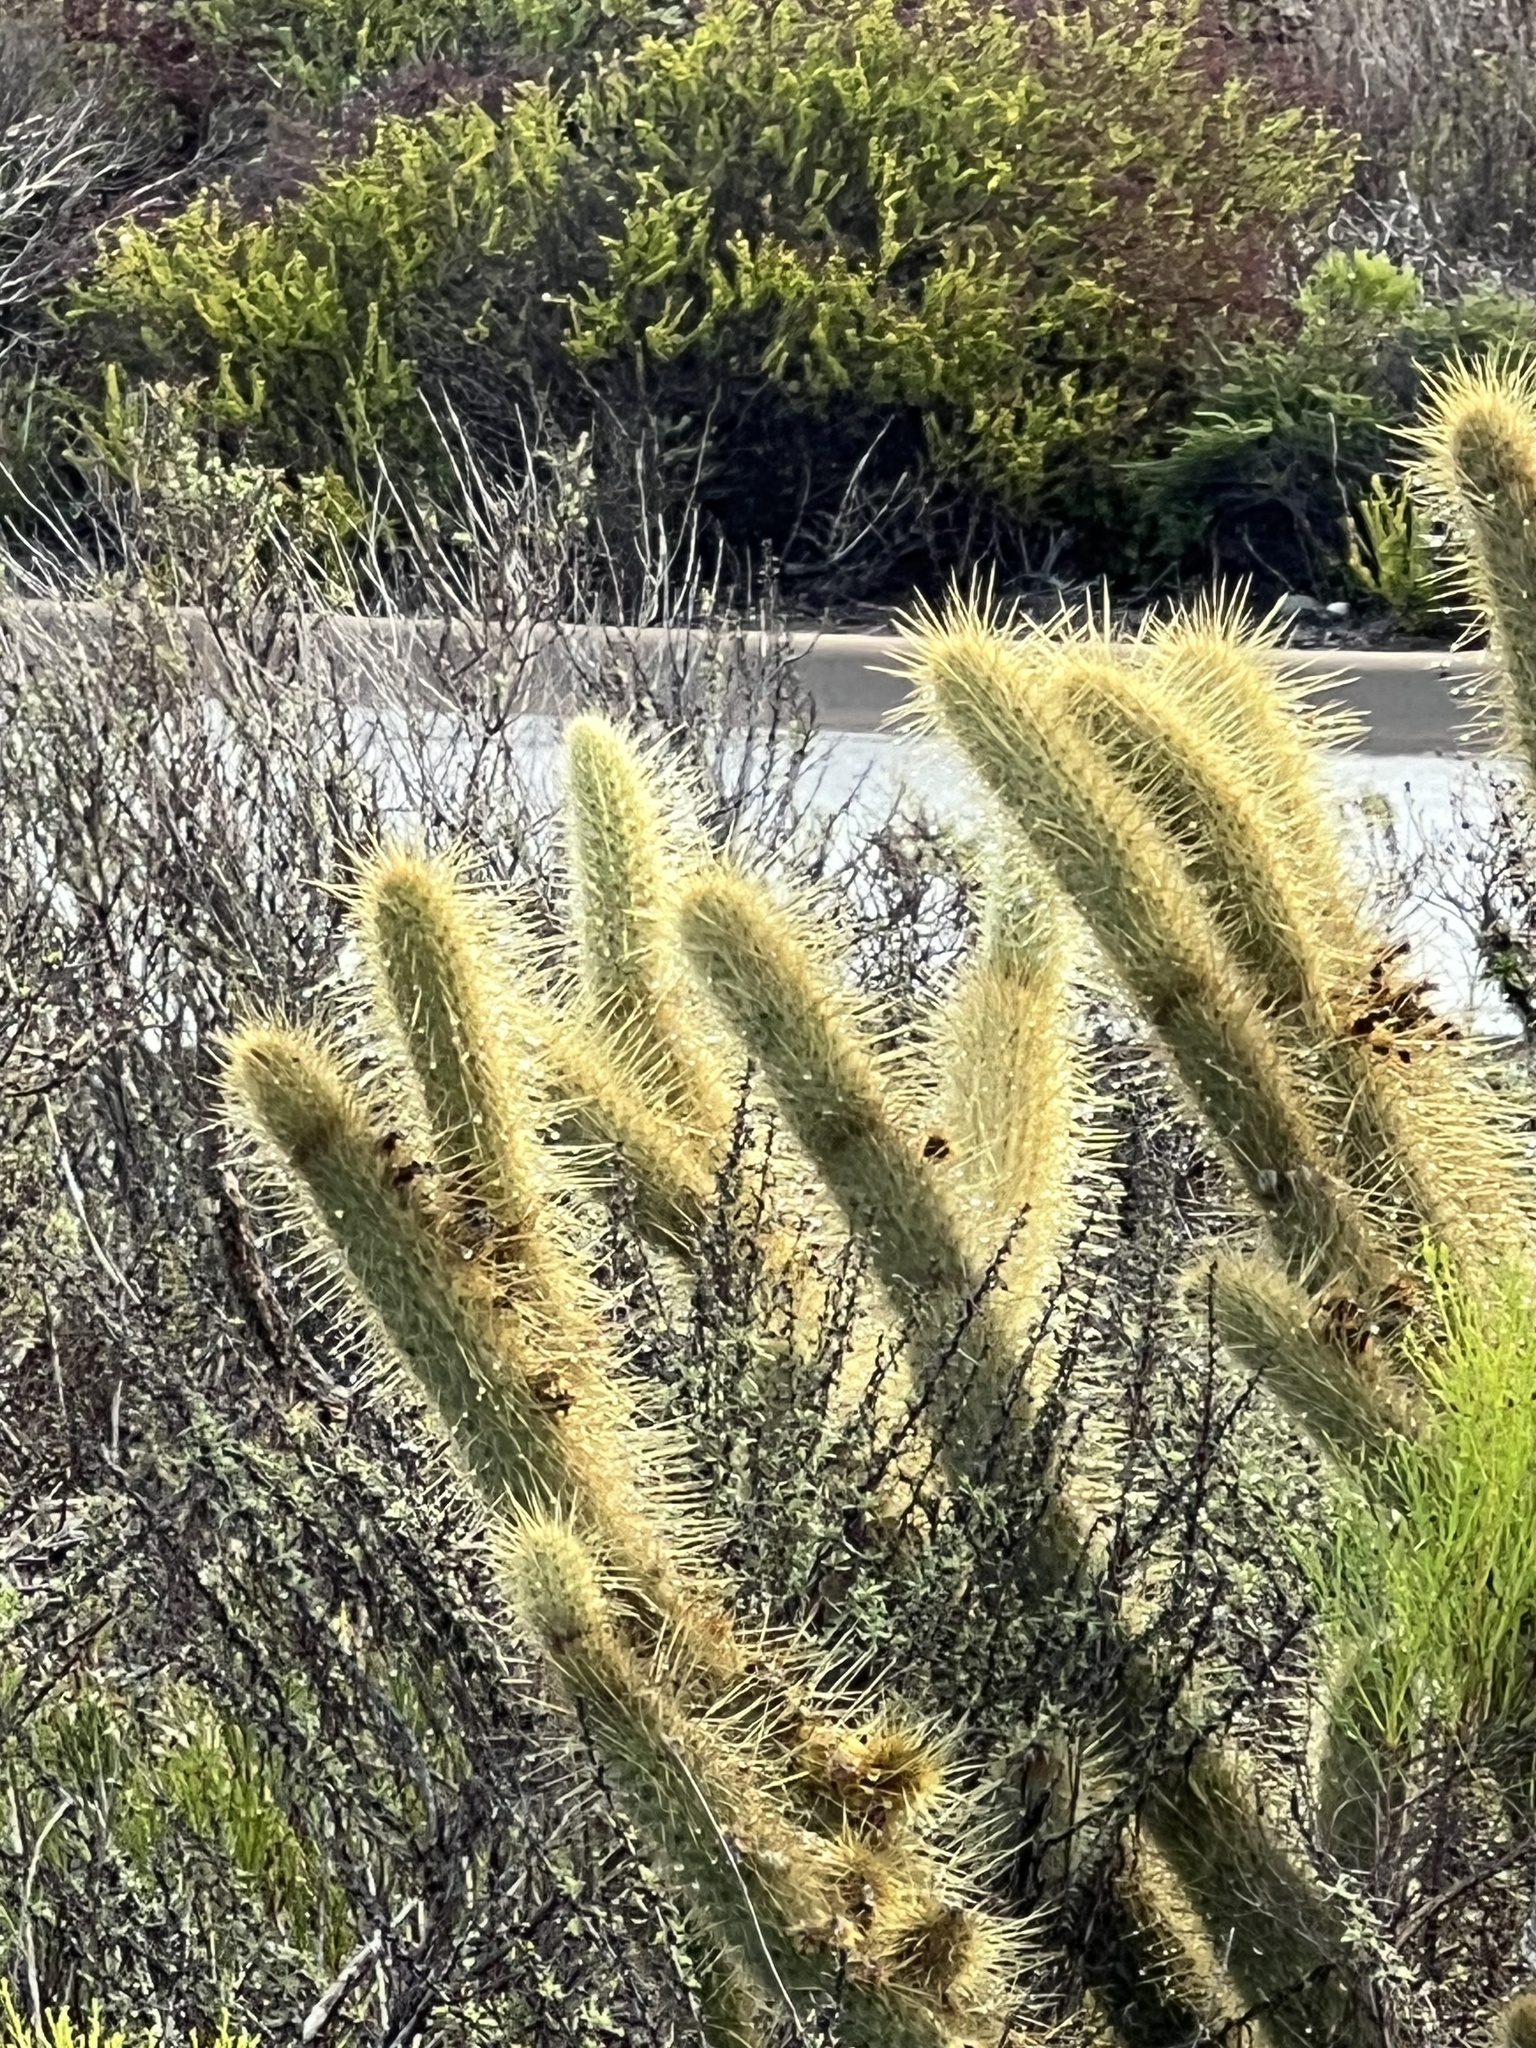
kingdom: Plantae
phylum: Tracheophyta
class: Magnoliopsida
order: Caryophyllales
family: Cactaceae
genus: Bergerocactus
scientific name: Bergerocactus emoryi
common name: Golden snakecactus
